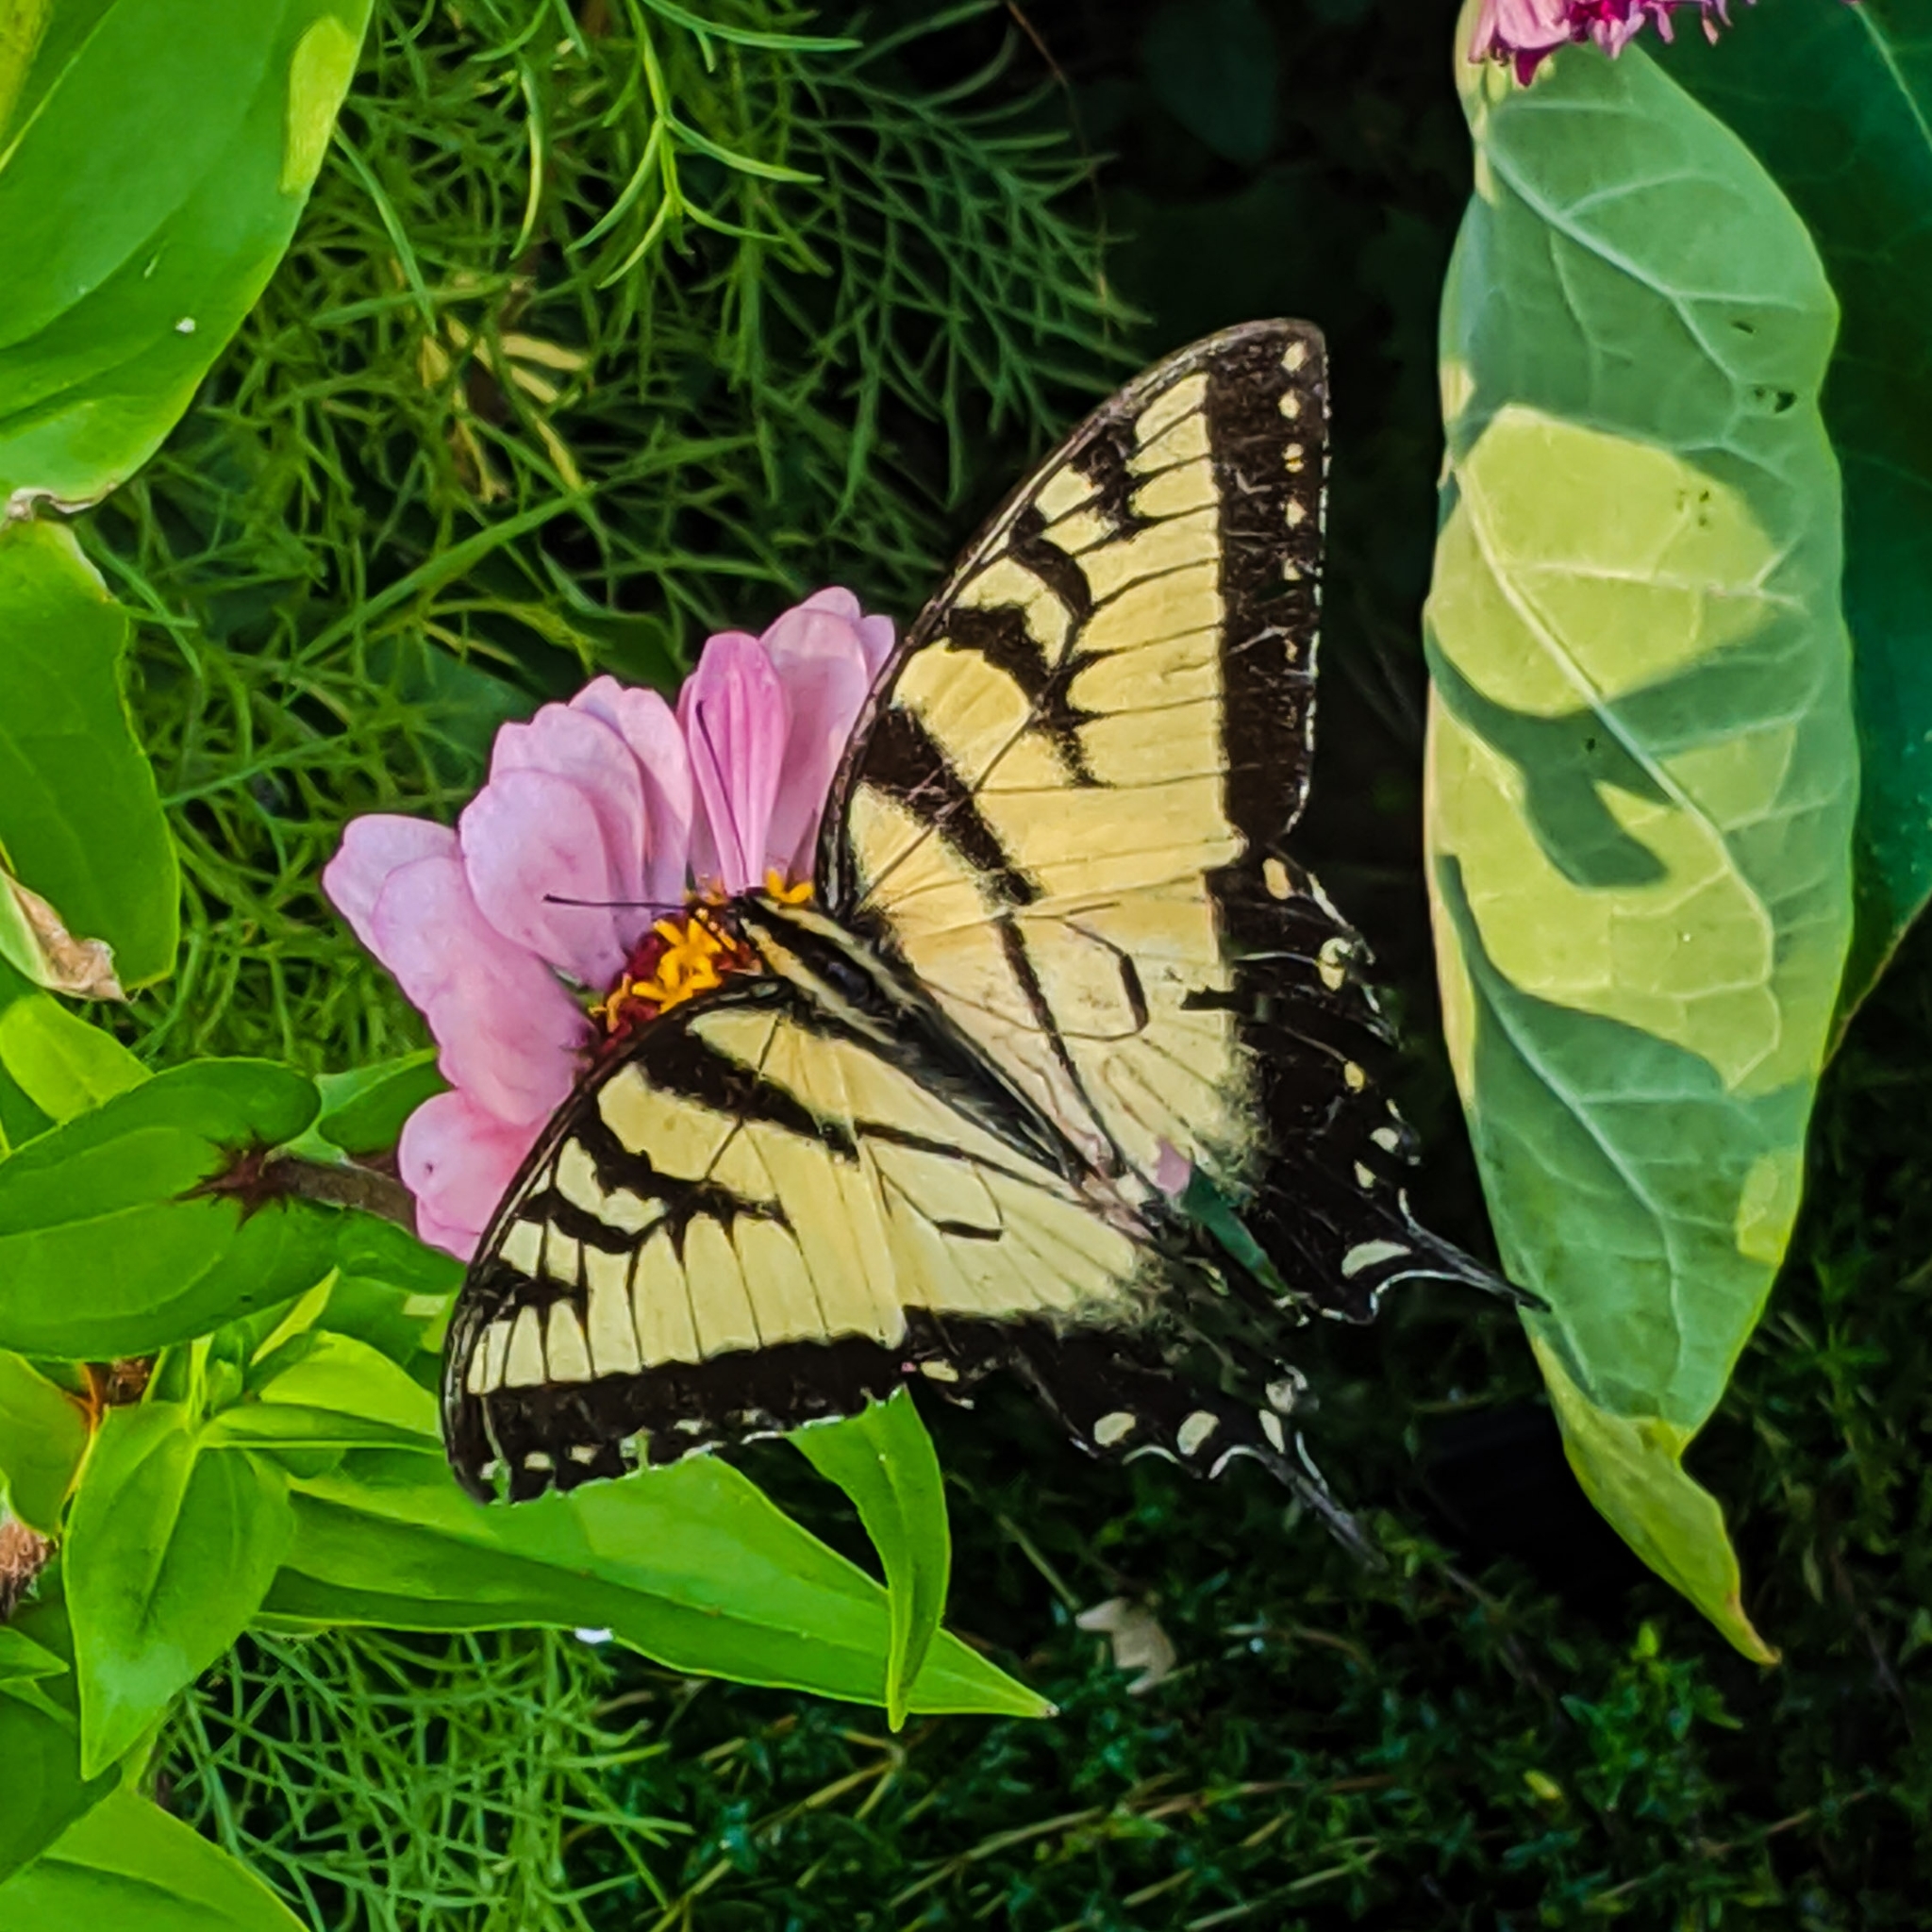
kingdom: Animalia
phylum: Arthropoda
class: Insecta
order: Lepidoptera
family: Papilionidae
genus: Papilio
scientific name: Papilio glaucus
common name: Tiger swallowtail
